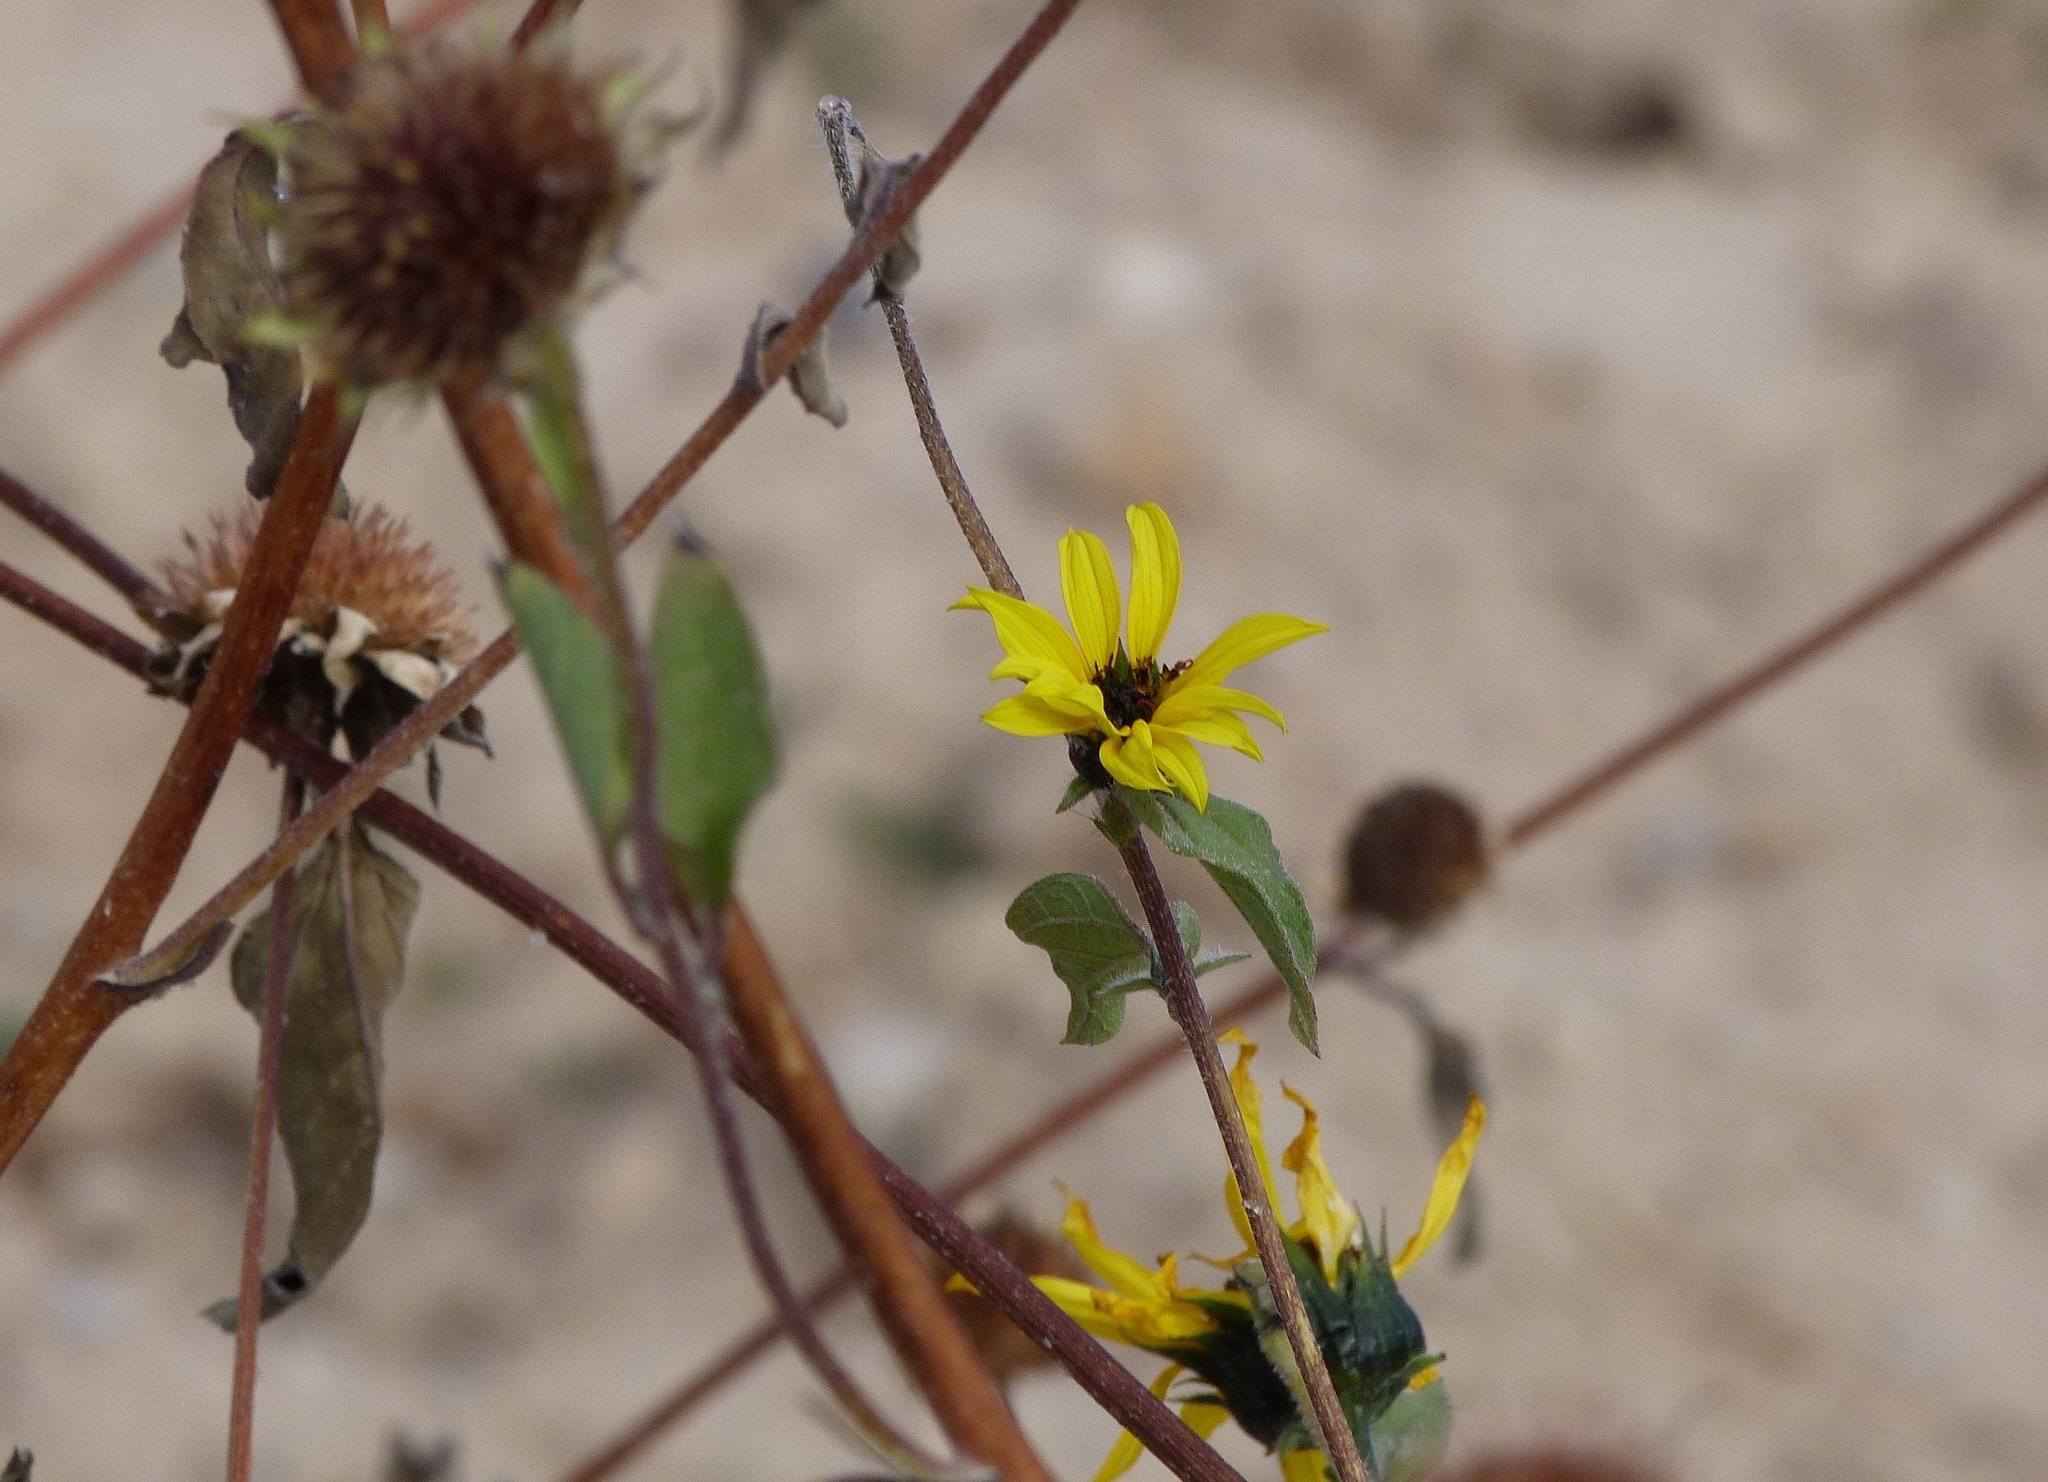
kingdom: Plantae
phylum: Tracheophyta
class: Magnoliopsida
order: Asterales
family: Asteraceae
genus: Helianthus
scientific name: Helianthus annuus
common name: Sunflower
